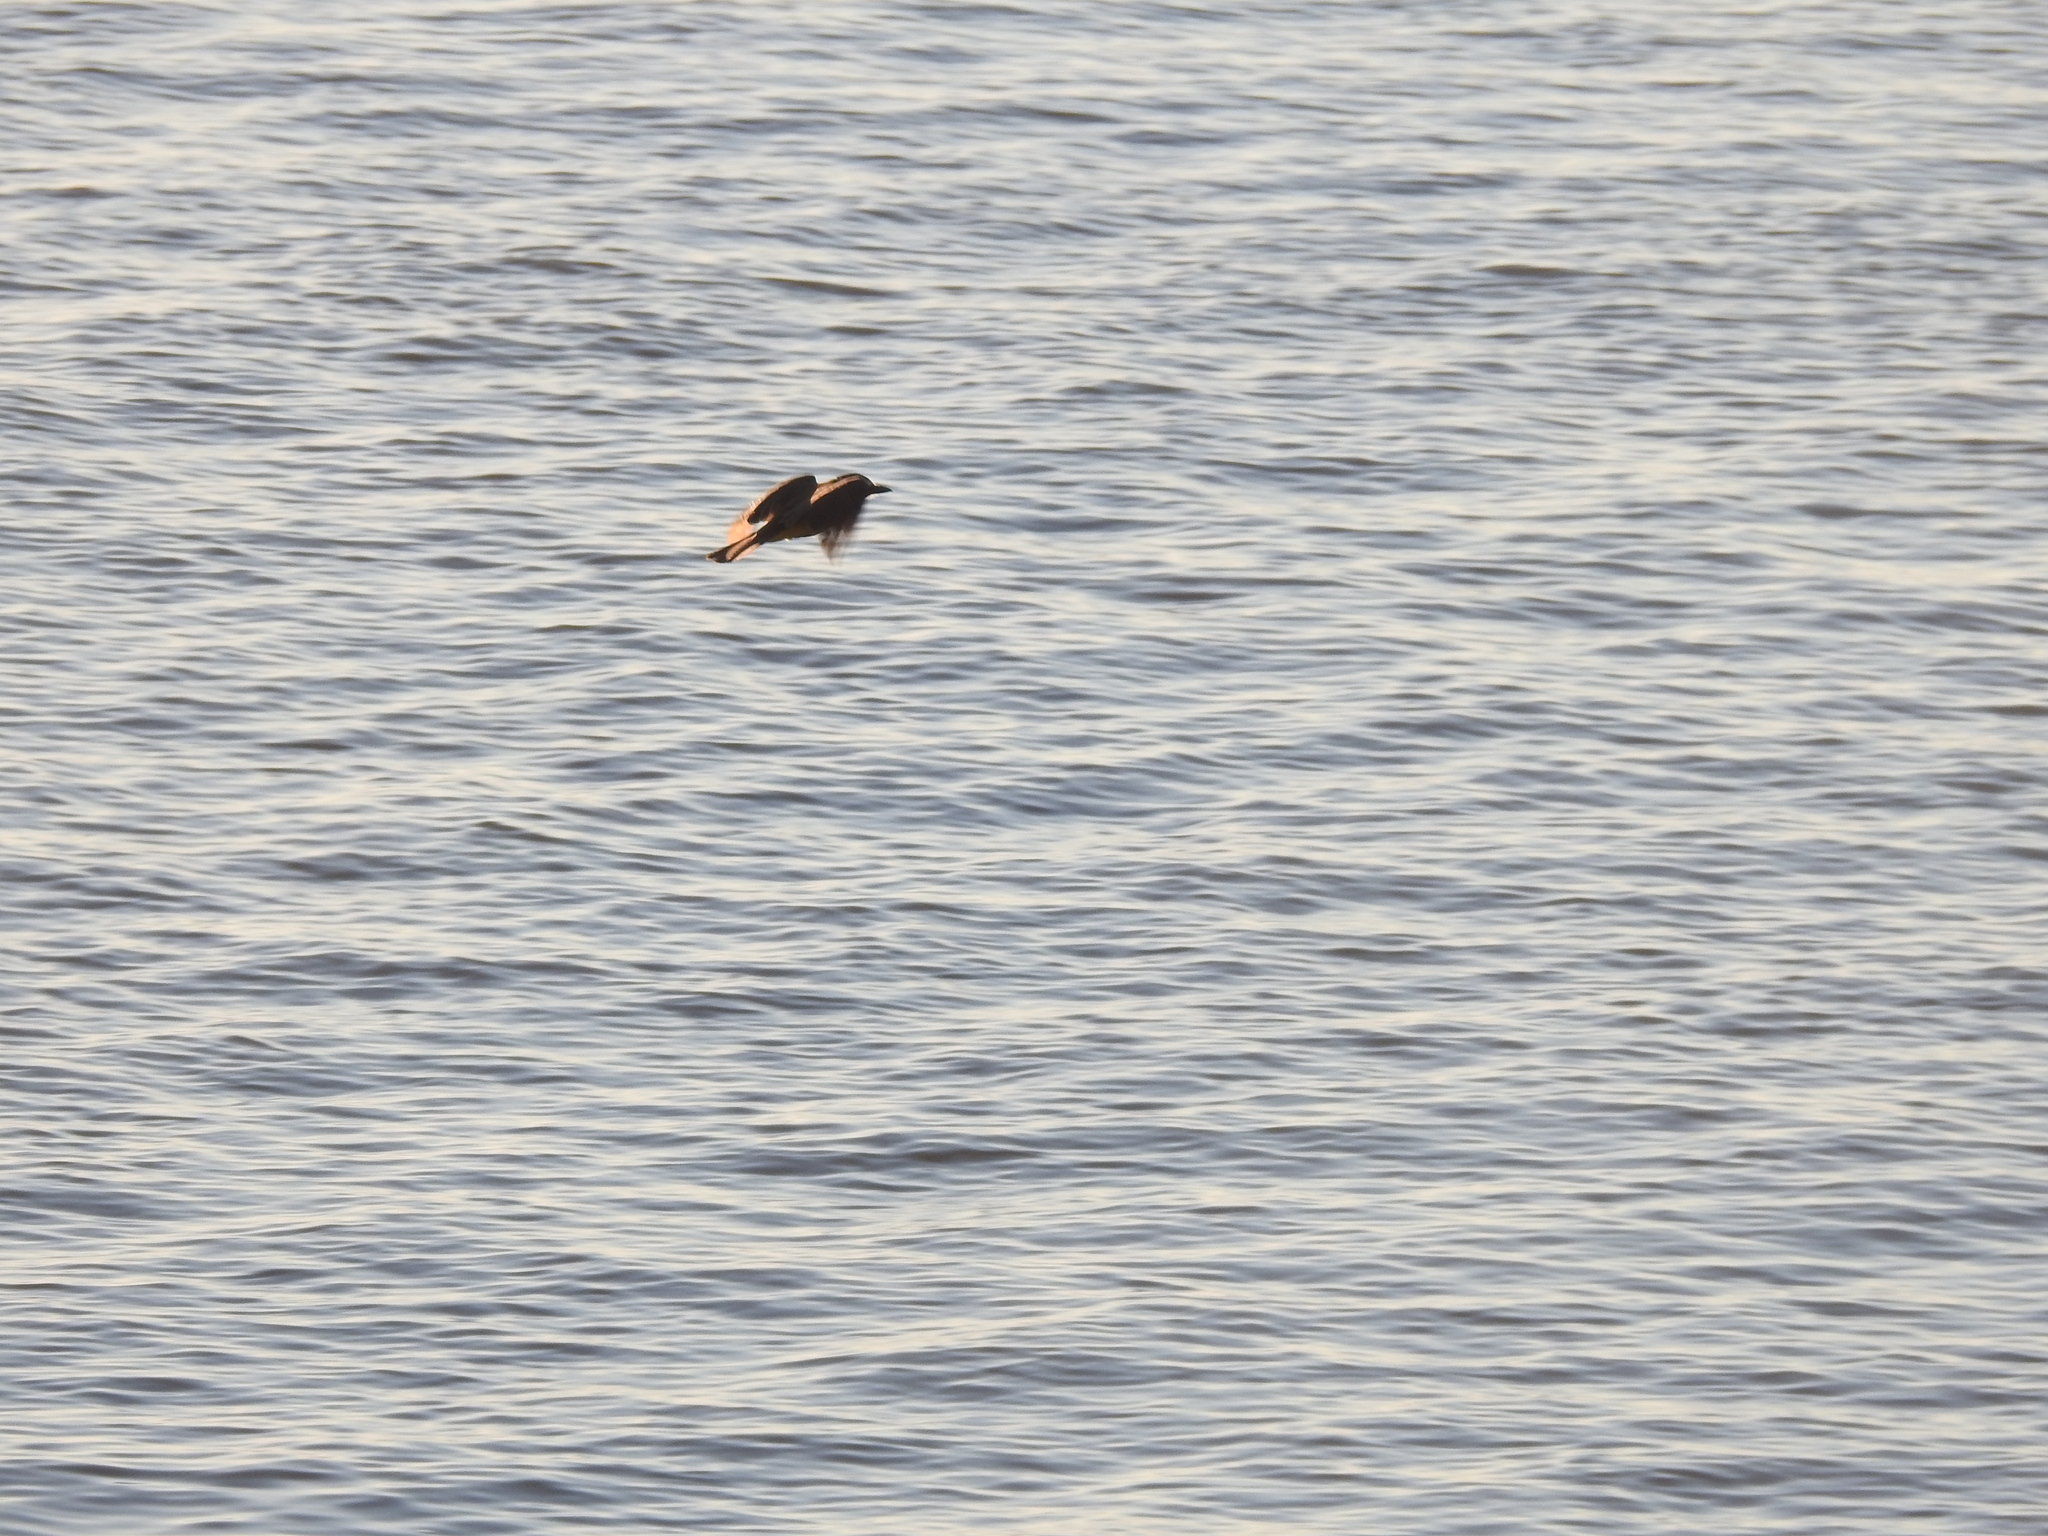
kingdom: Animalia
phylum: Chordata
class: Aves
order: Passeriformes
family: Tyrannidae
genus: Pitangus
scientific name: Pitangus sulphuratus
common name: Great kiskadee
